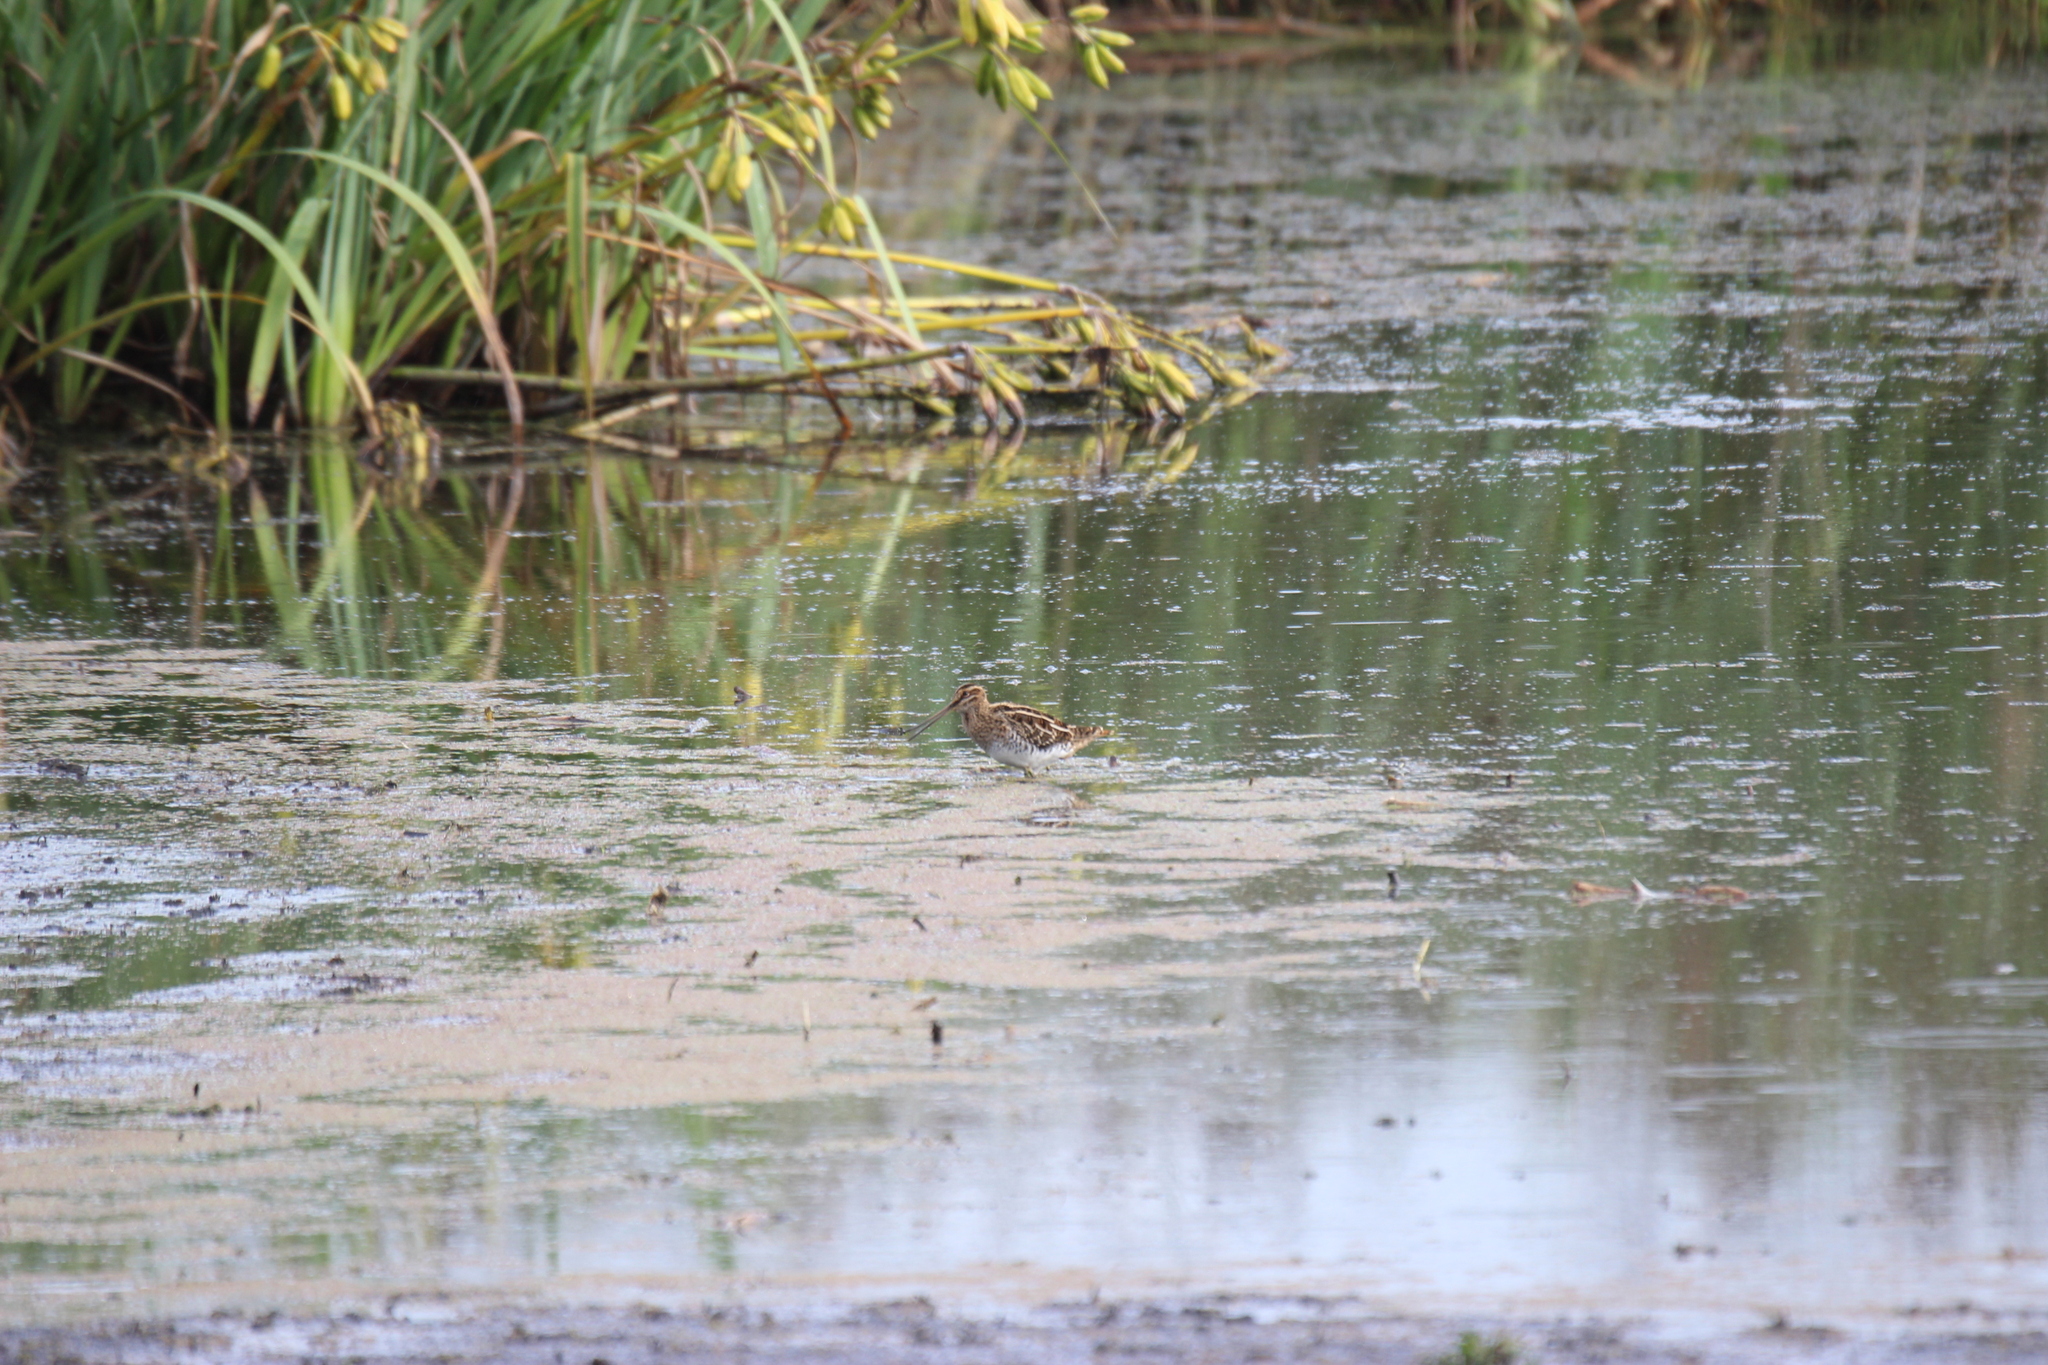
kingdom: Animalia
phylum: Chordata
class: Aves
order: Charadriiformes
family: Scolopacidae
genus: Gallinago
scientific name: Gallinago gallinago
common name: Common snipe
